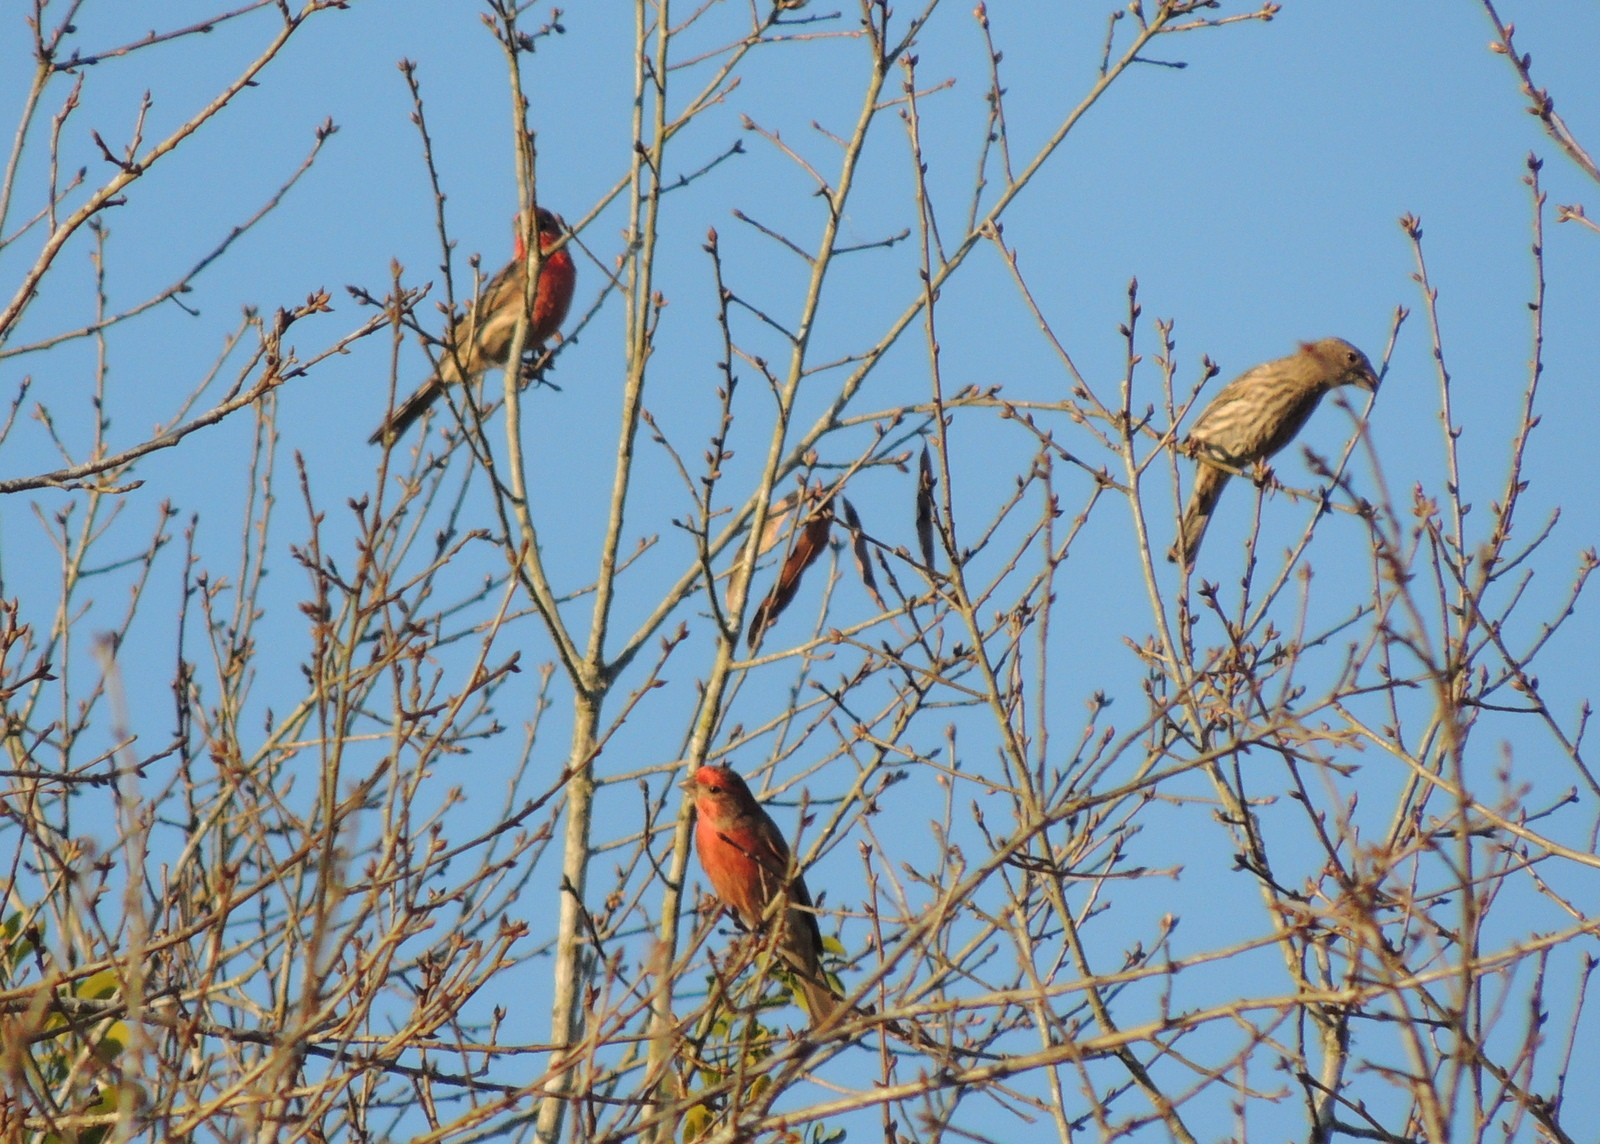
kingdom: Animalia
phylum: Chordata
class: Aves
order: Passeriformes
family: Fringillidae
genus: Haemorhous
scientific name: Haemorhous mexicanus
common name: House finch
